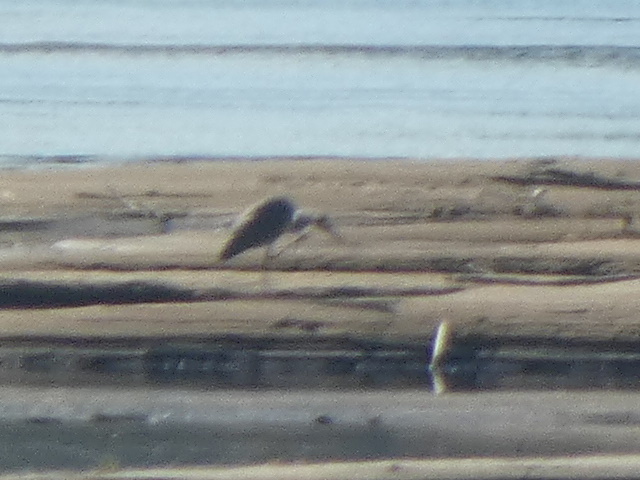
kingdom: Animalia
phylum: Chordata
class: Aves
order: Pelecaniformes
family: Ardeidae
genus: Ardea
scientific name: Ardea cinerea
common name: Grey heron
